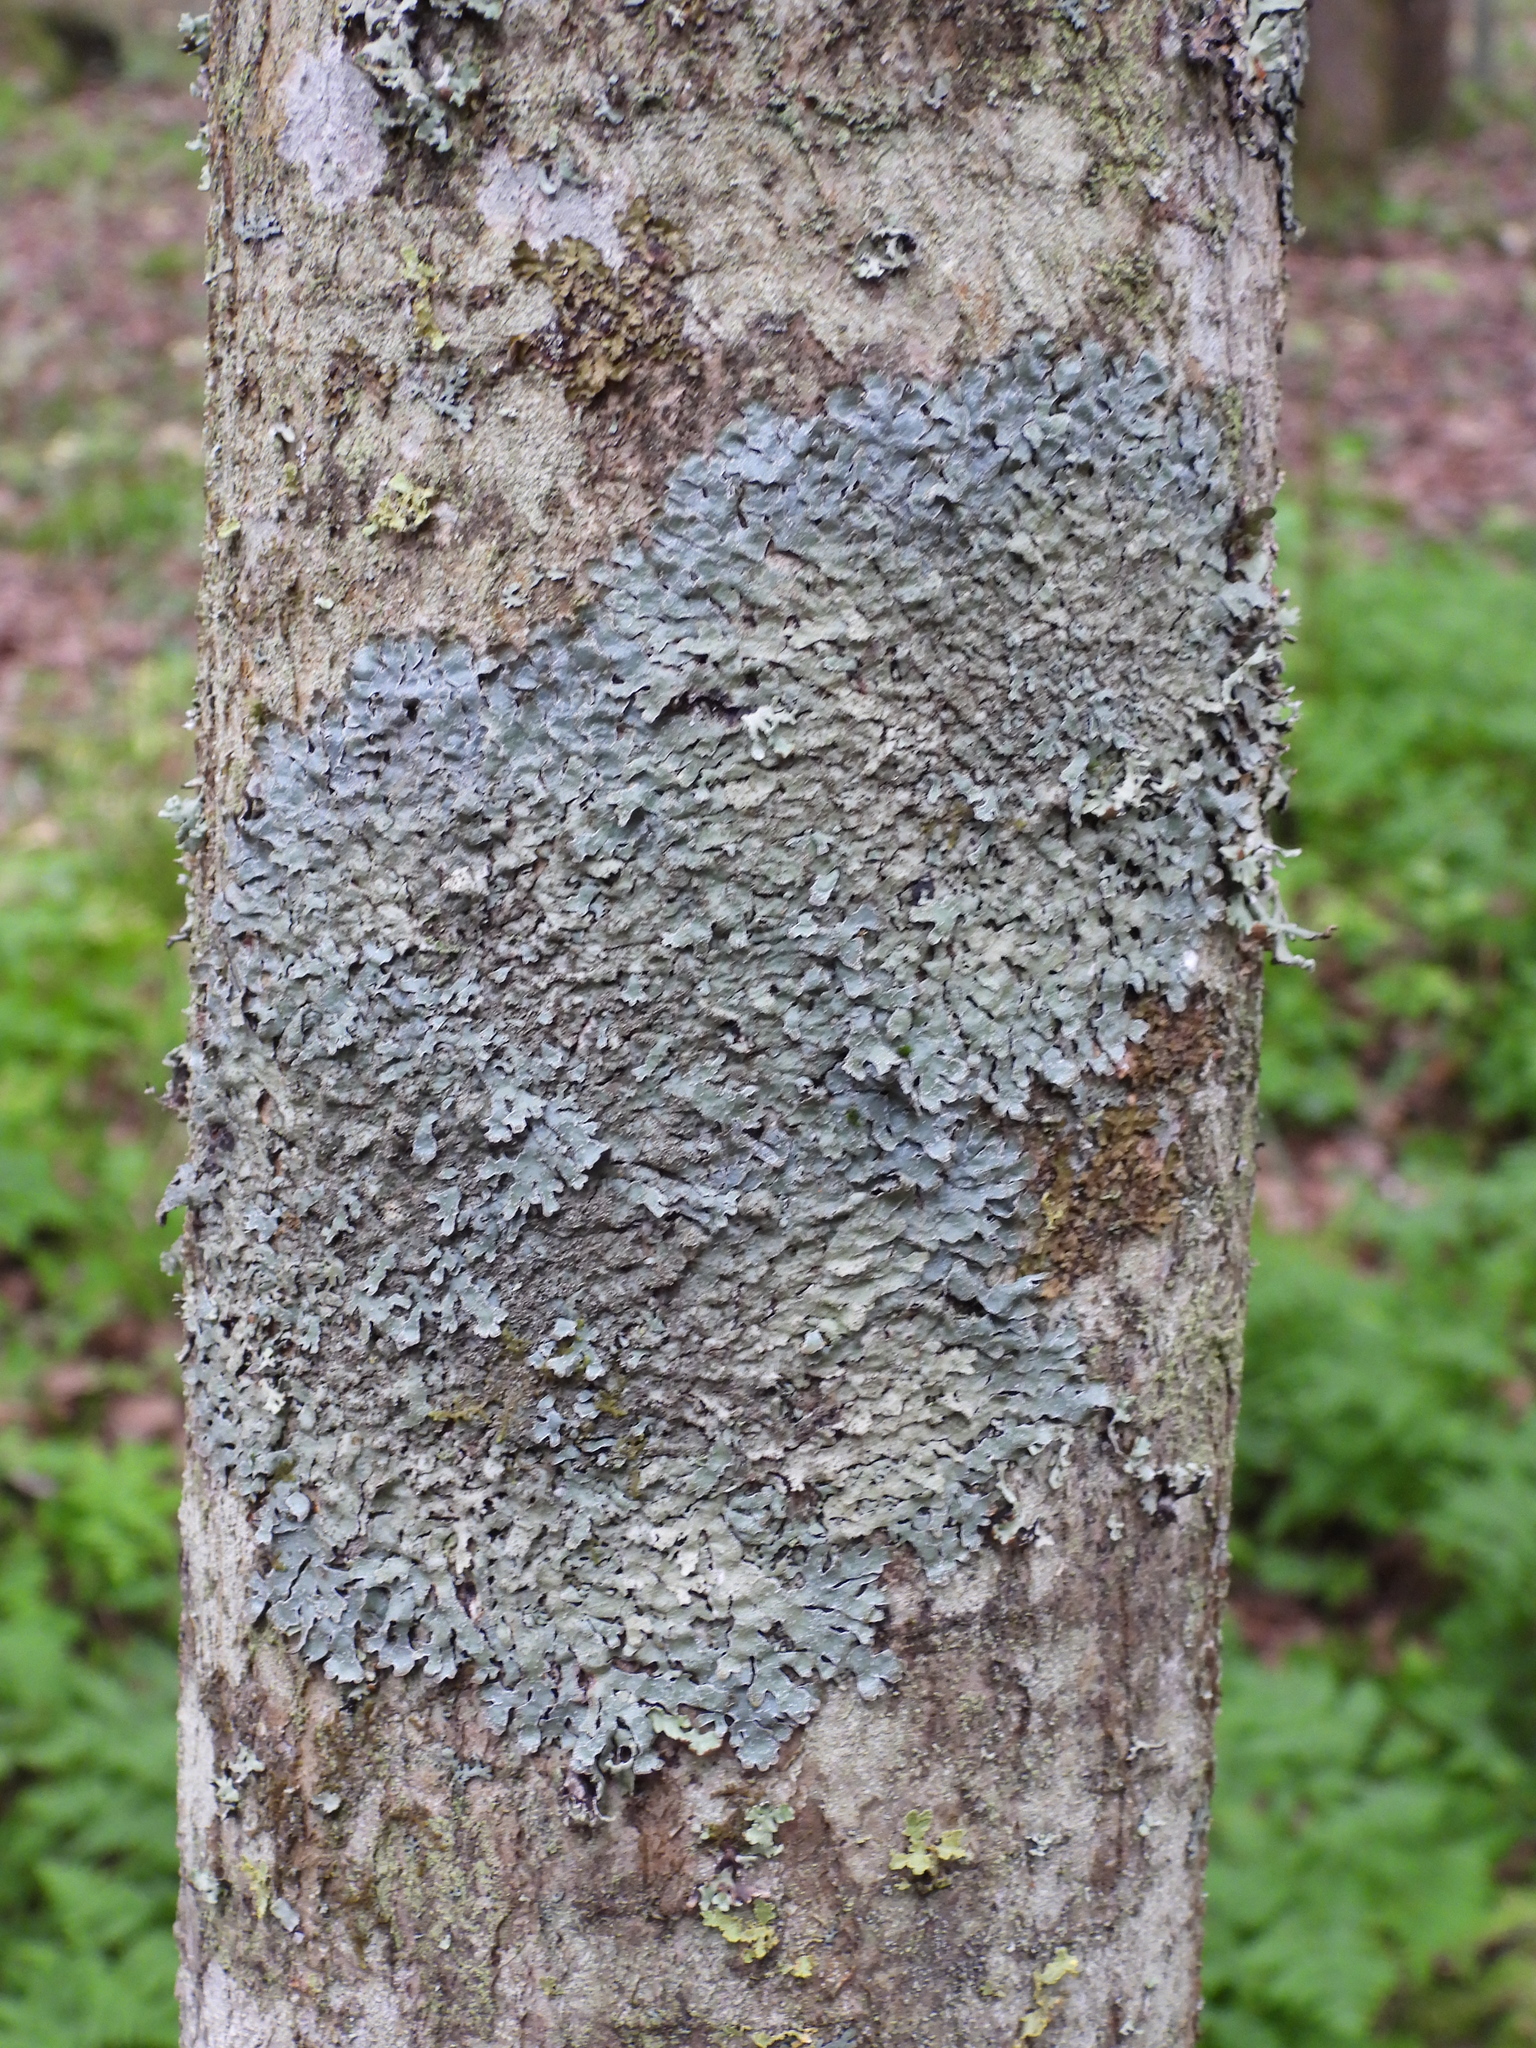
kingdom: Fungi
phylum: Ascomycota
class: Lecanoromycetes
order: Lecanorales
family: Parmeliaceae
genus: Parmelia
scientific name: Parmelia sulcata
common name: Netted shield lichen
